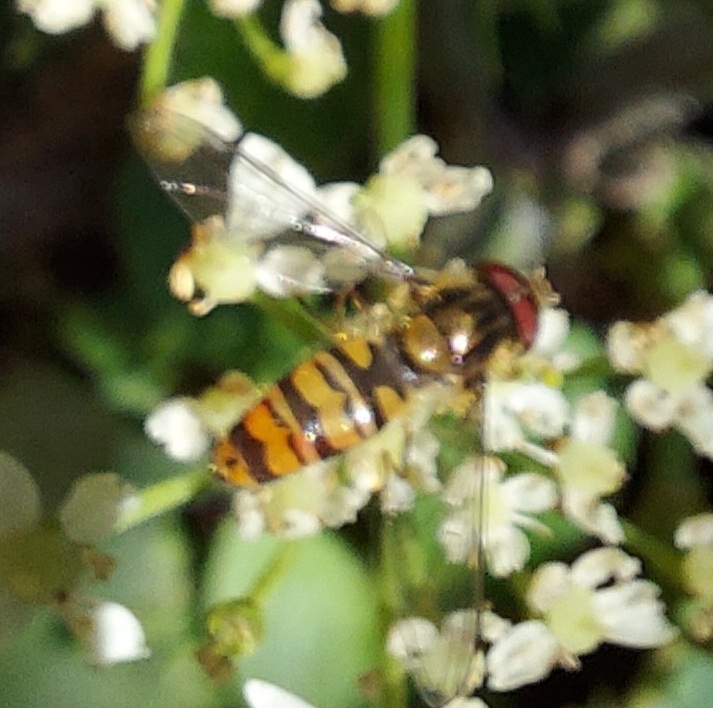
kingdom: Animalia
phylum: Arthropoda
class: Insecta
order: Diptera
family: Syrphidae
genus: Episyrphus
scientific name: Episyrphus balteatus
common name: Marmalade hoverfly
